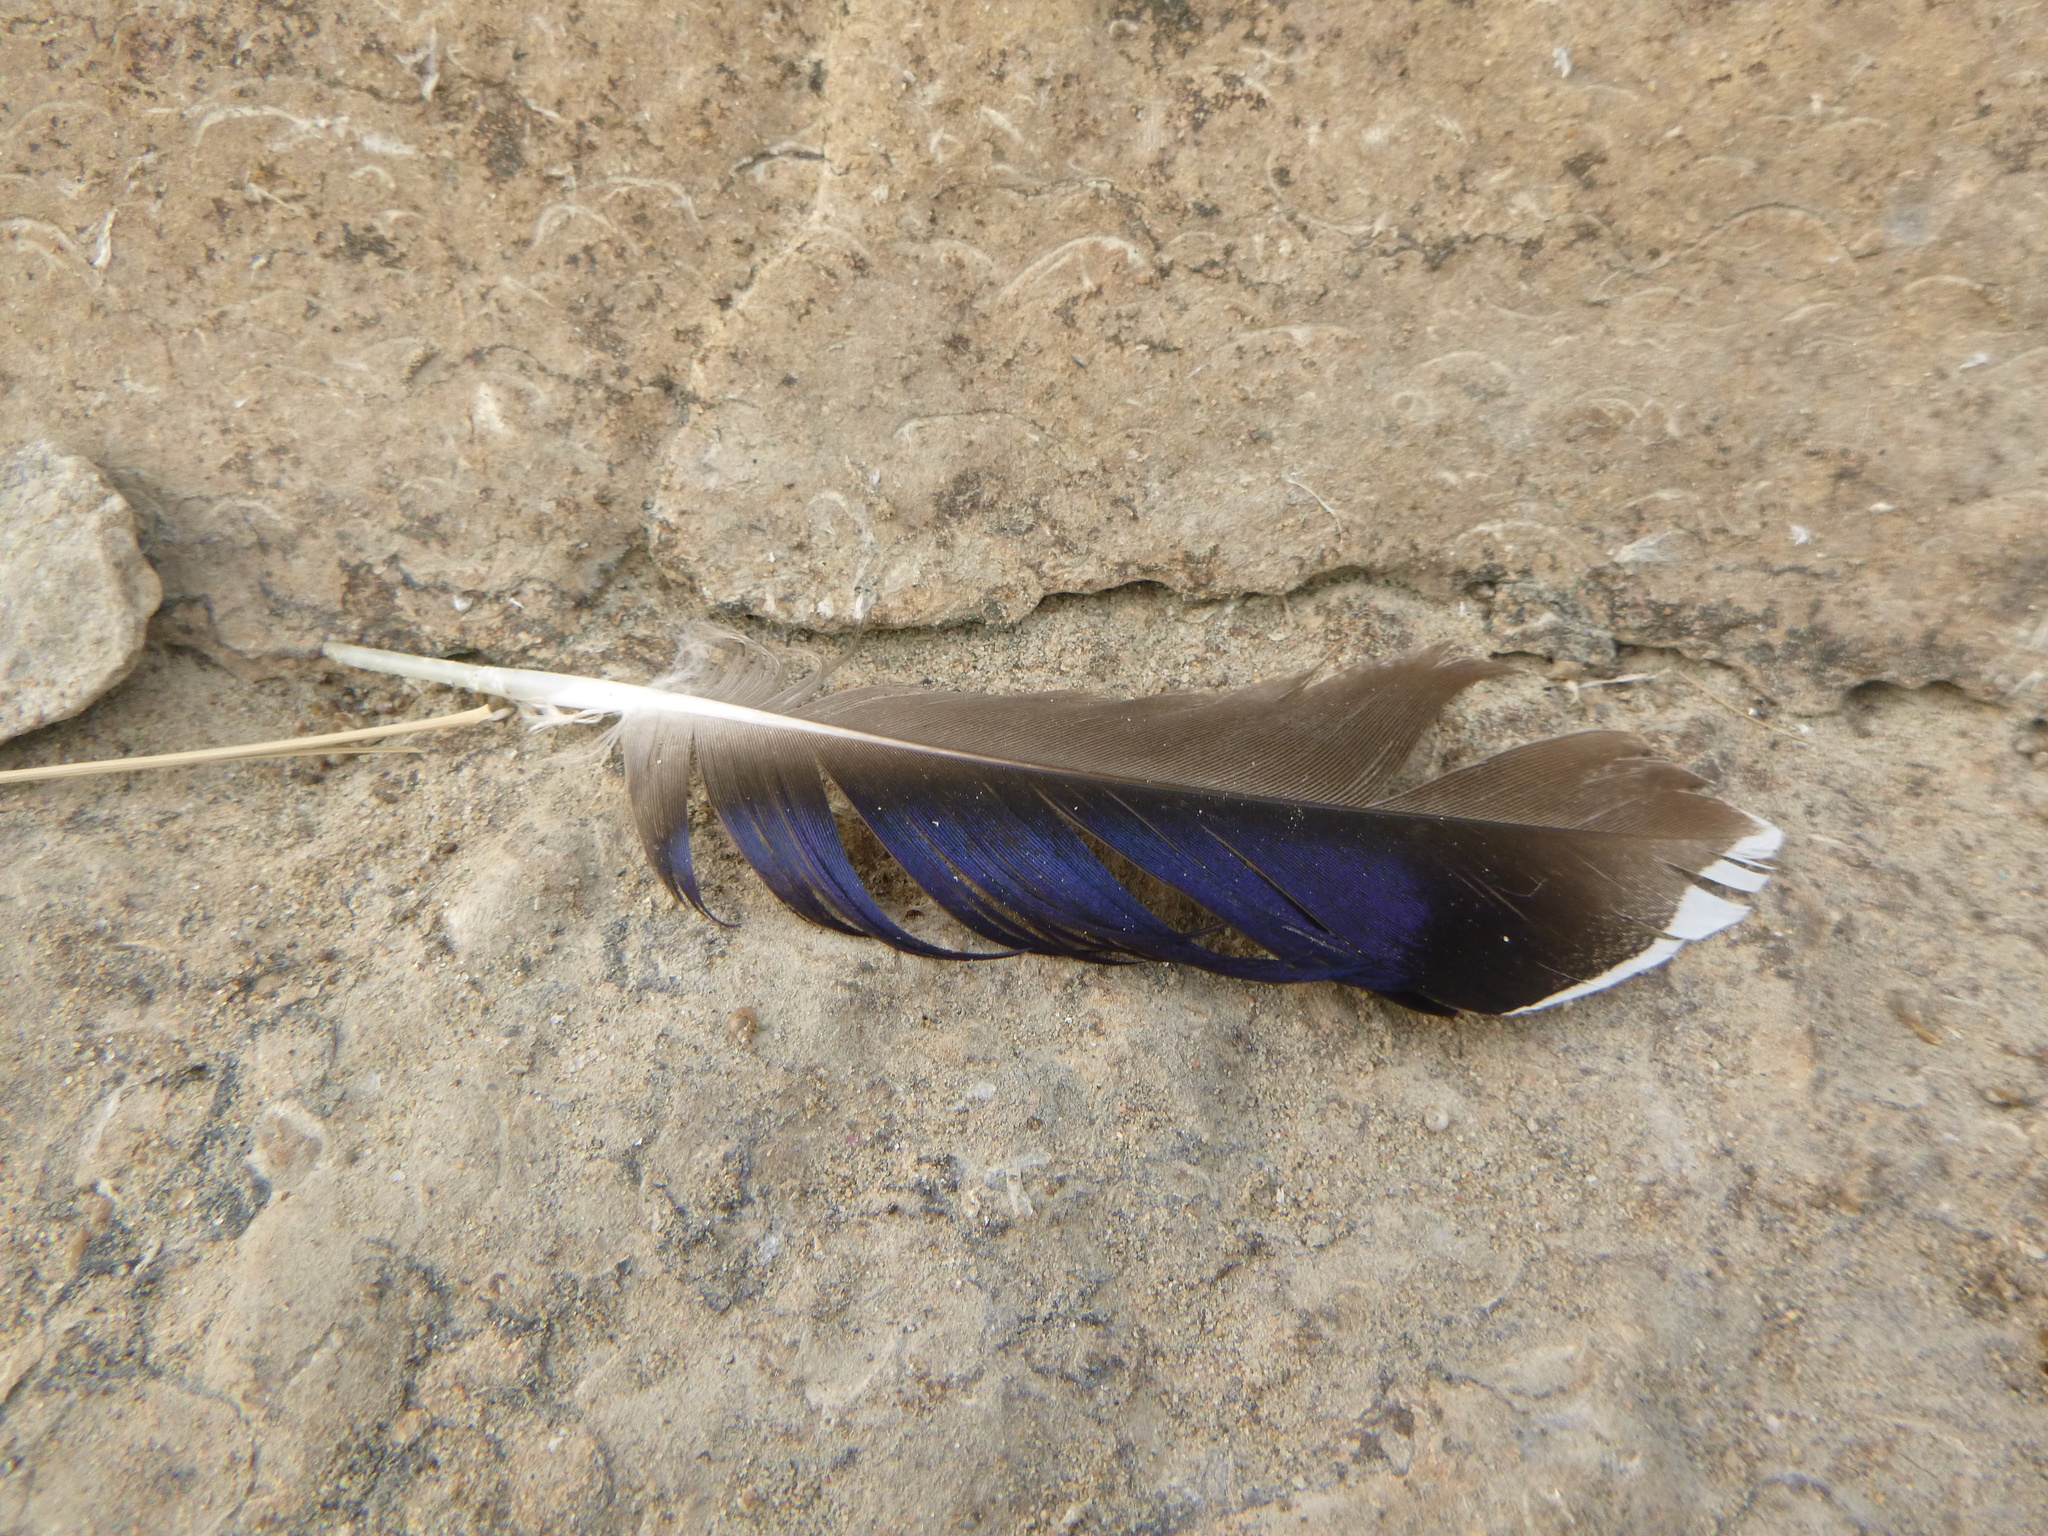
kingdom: Animalia
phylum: Chordata
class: Aves
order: Anseriformes
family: Anatidae
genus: Anas
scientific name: Anas platyrhynchos
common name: Mallard
